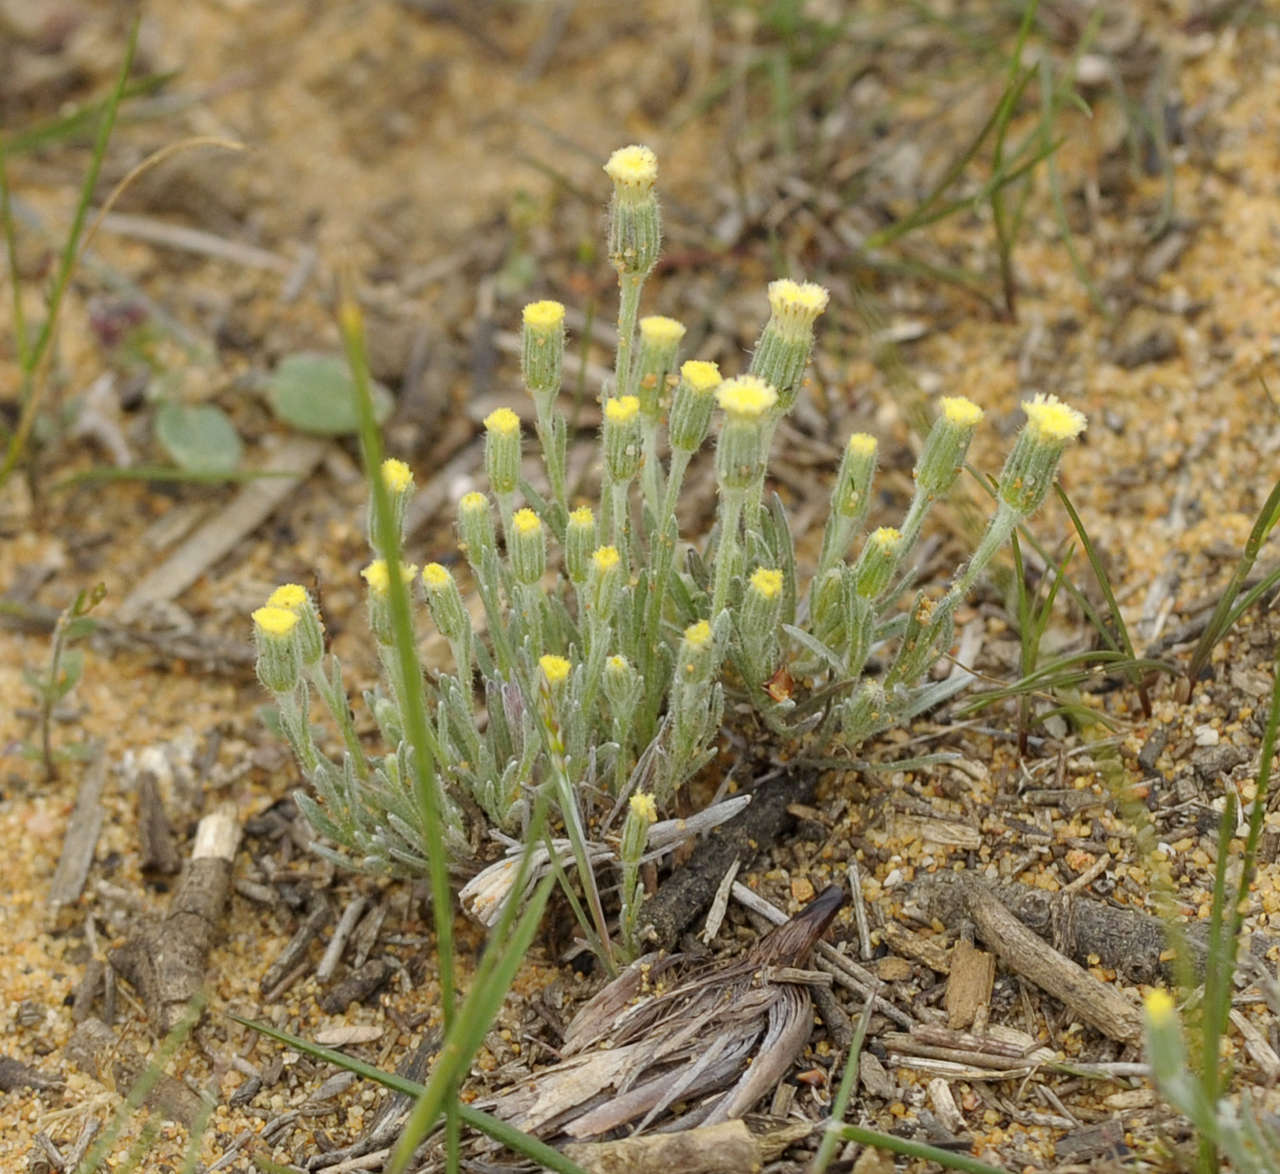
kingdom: Plantae
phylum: Tracheophyta
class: Magnoliopsida
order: Asterales
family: Asteraceae
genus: Millotia
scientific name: Millotia tenuifolia
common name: Soft millotia
